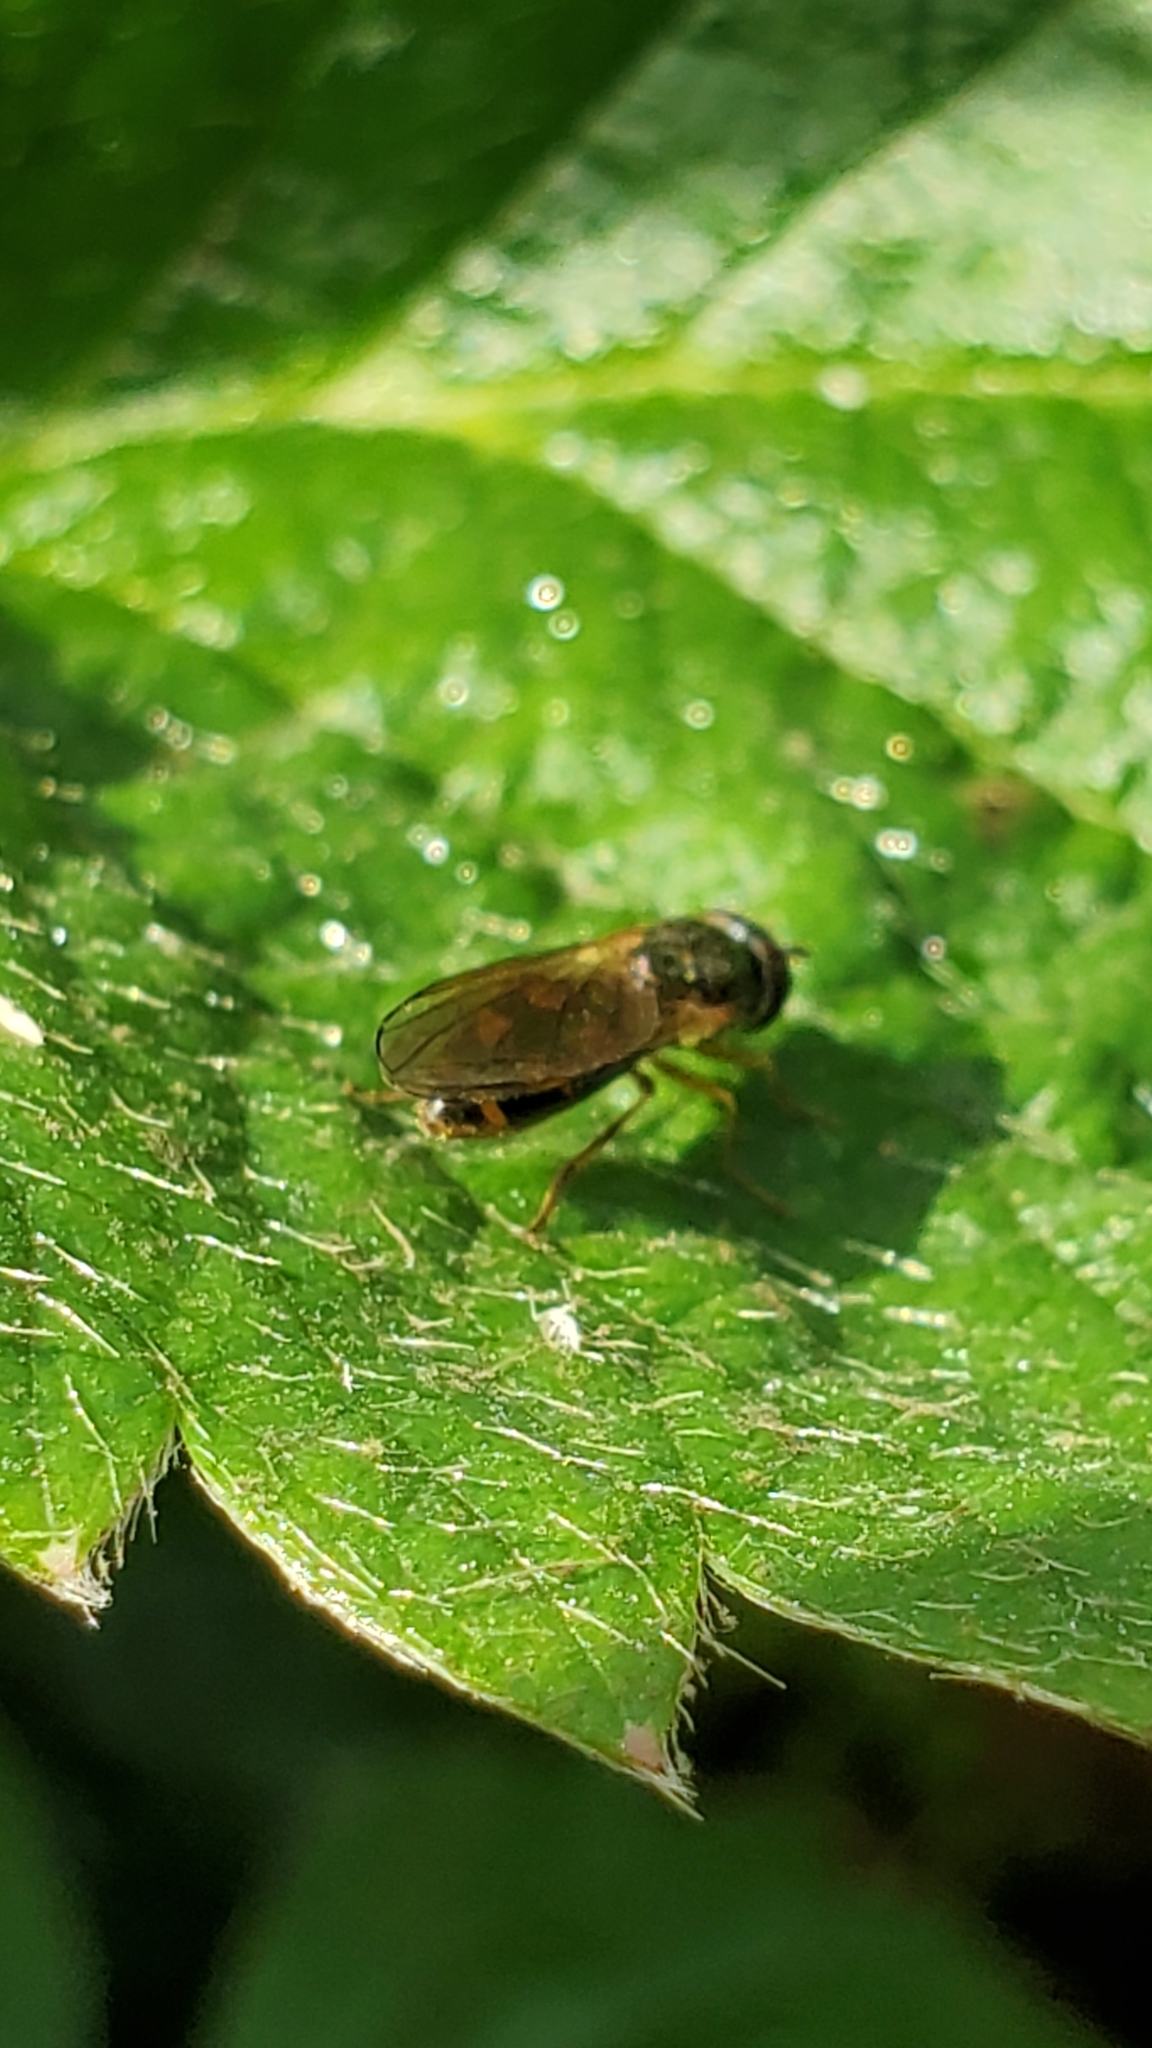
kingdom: Animalia
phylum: Arthropoda
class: Insecta
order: Diptera
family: Syrphidae
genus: Melanostoma
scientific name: Melanostoma
